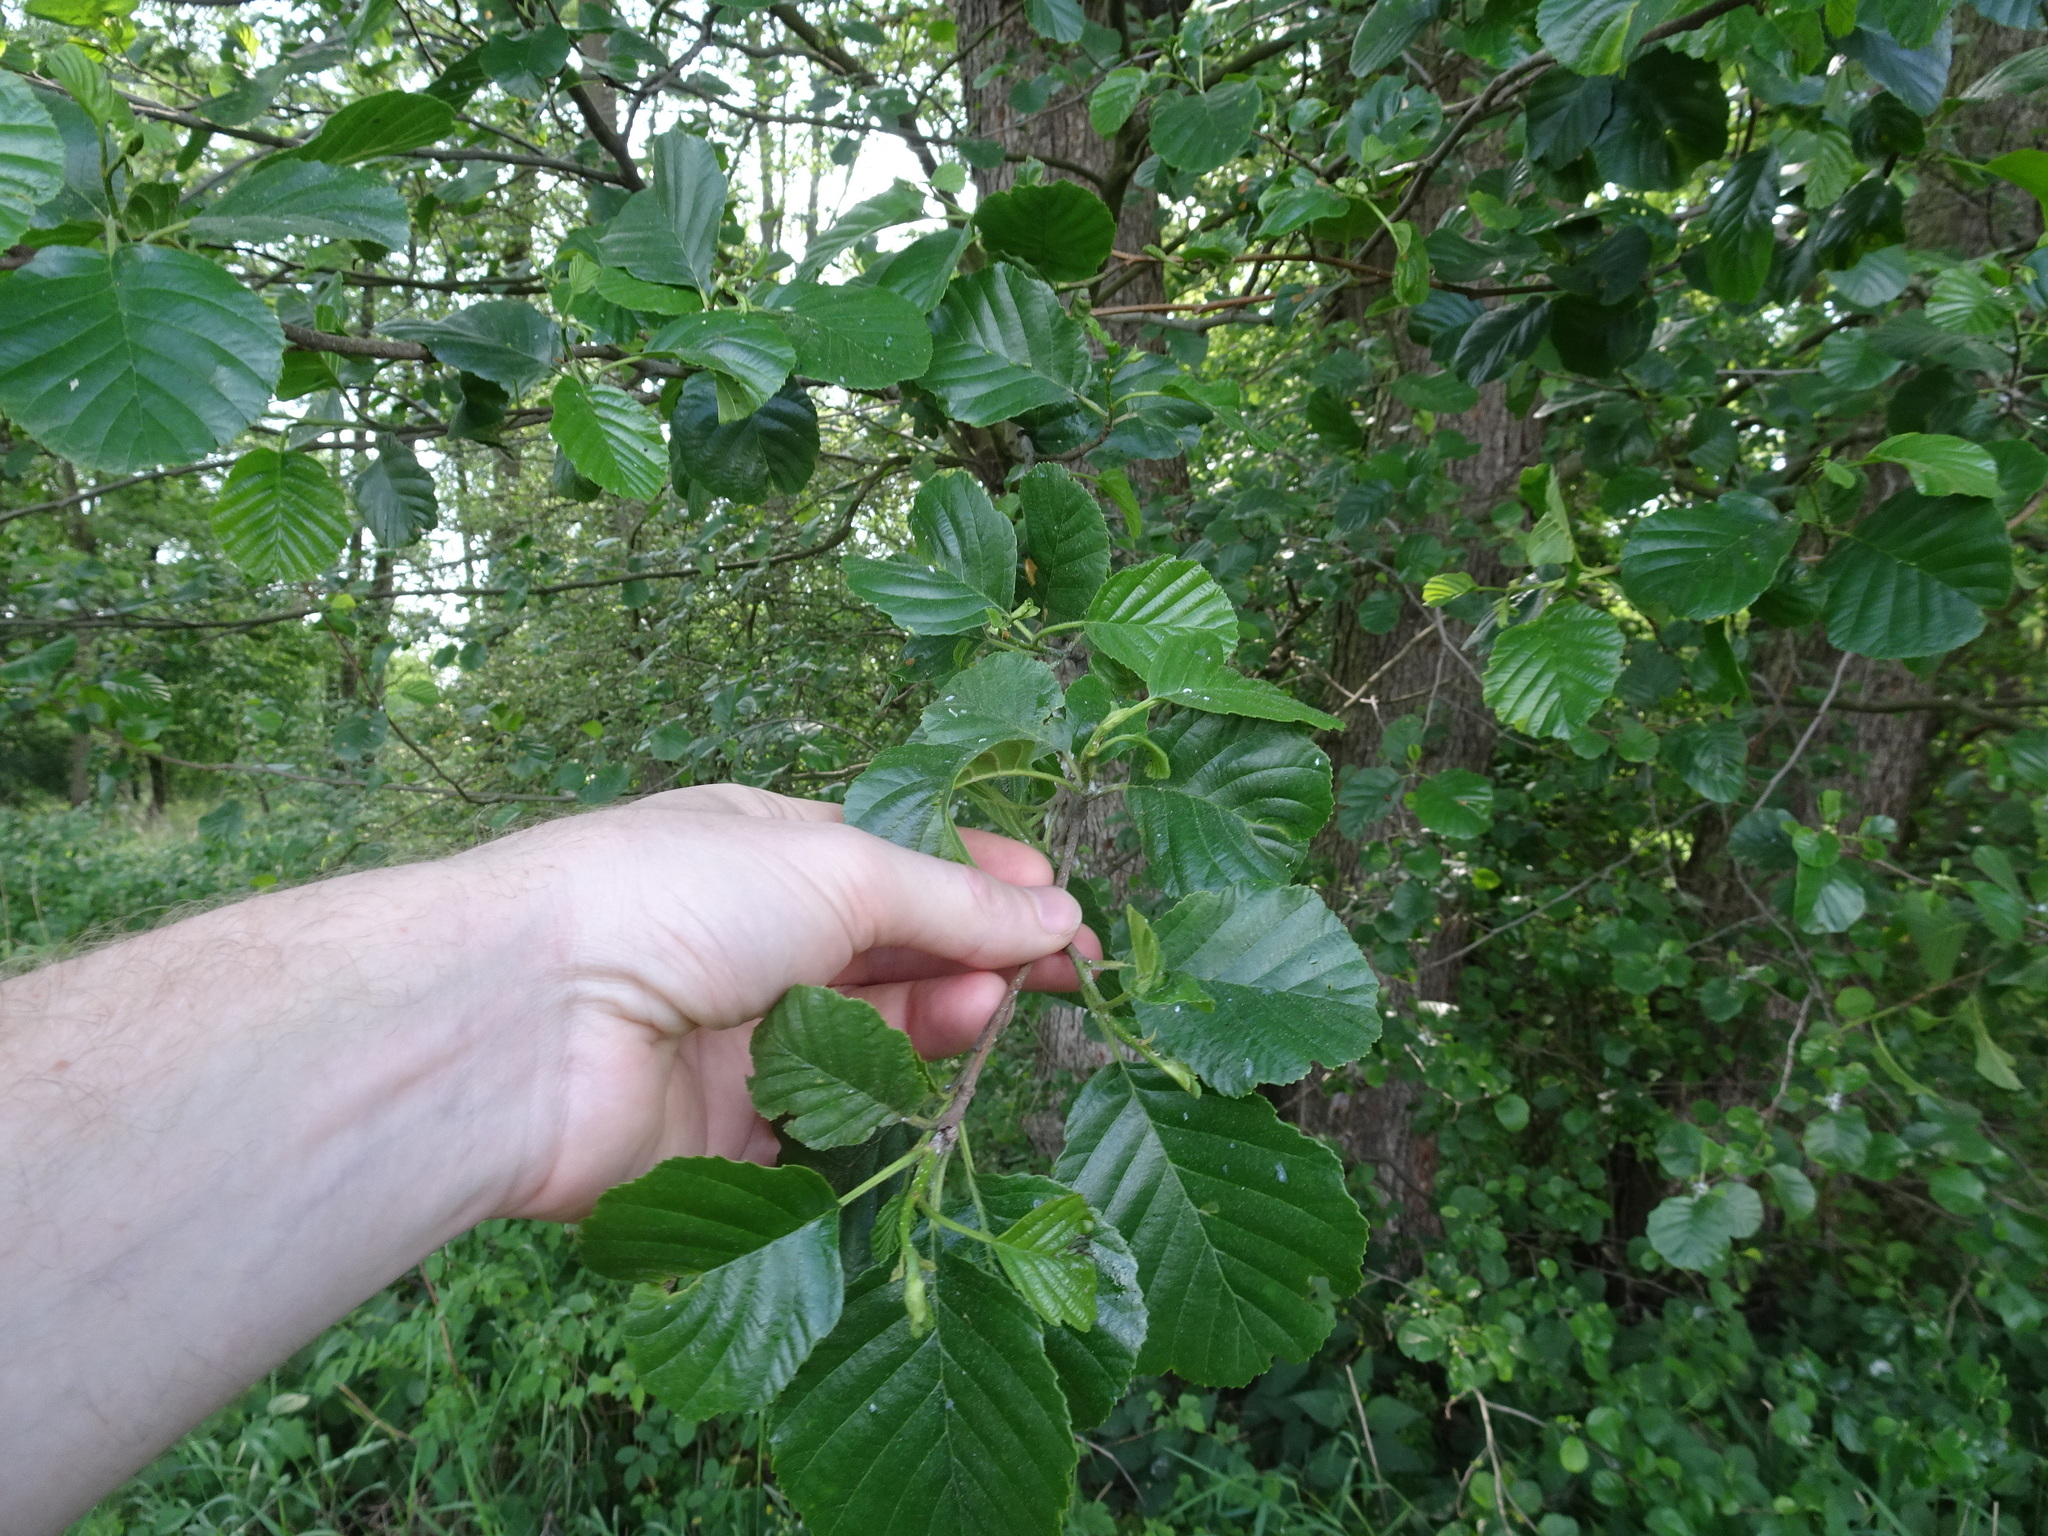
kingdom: Plantae
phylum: Tracheophyta
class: Magnoliopsida
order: Fagales
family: Betulaceae
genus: Alnus
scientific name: Alnus glutinosa
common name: Black alder
